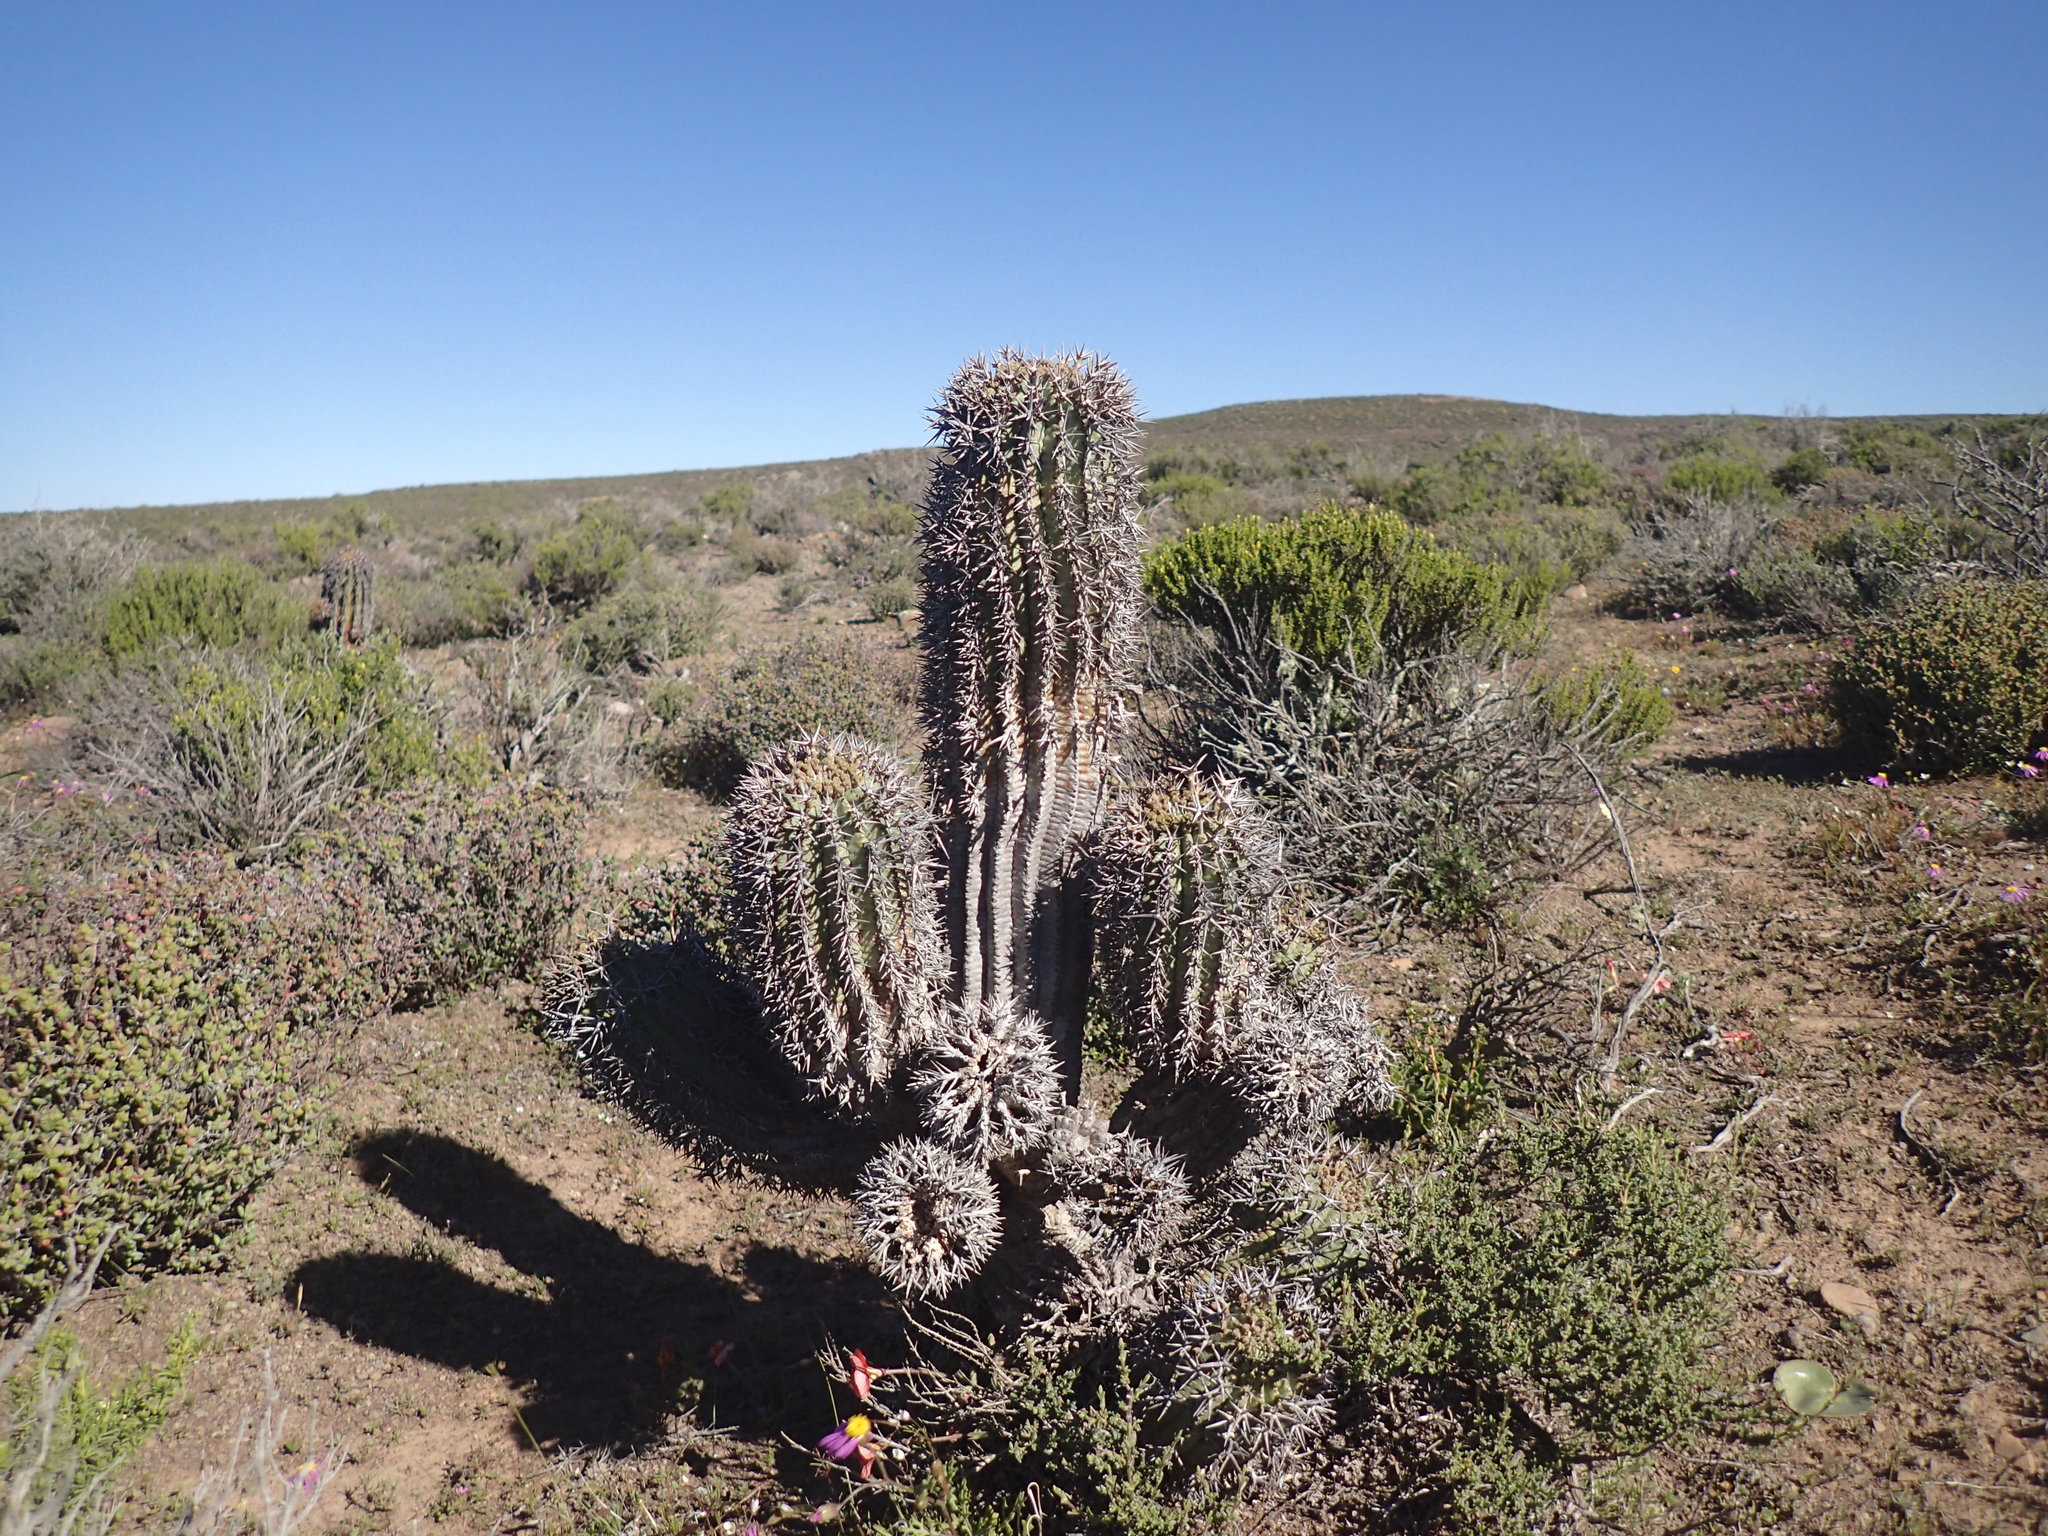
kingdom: Plantae
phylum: Tracheophyta
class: Magnoliopsida
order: Malpighiales
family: Euphorbiaceae
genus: Euphorbia
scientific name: Euphorbia stellispina
